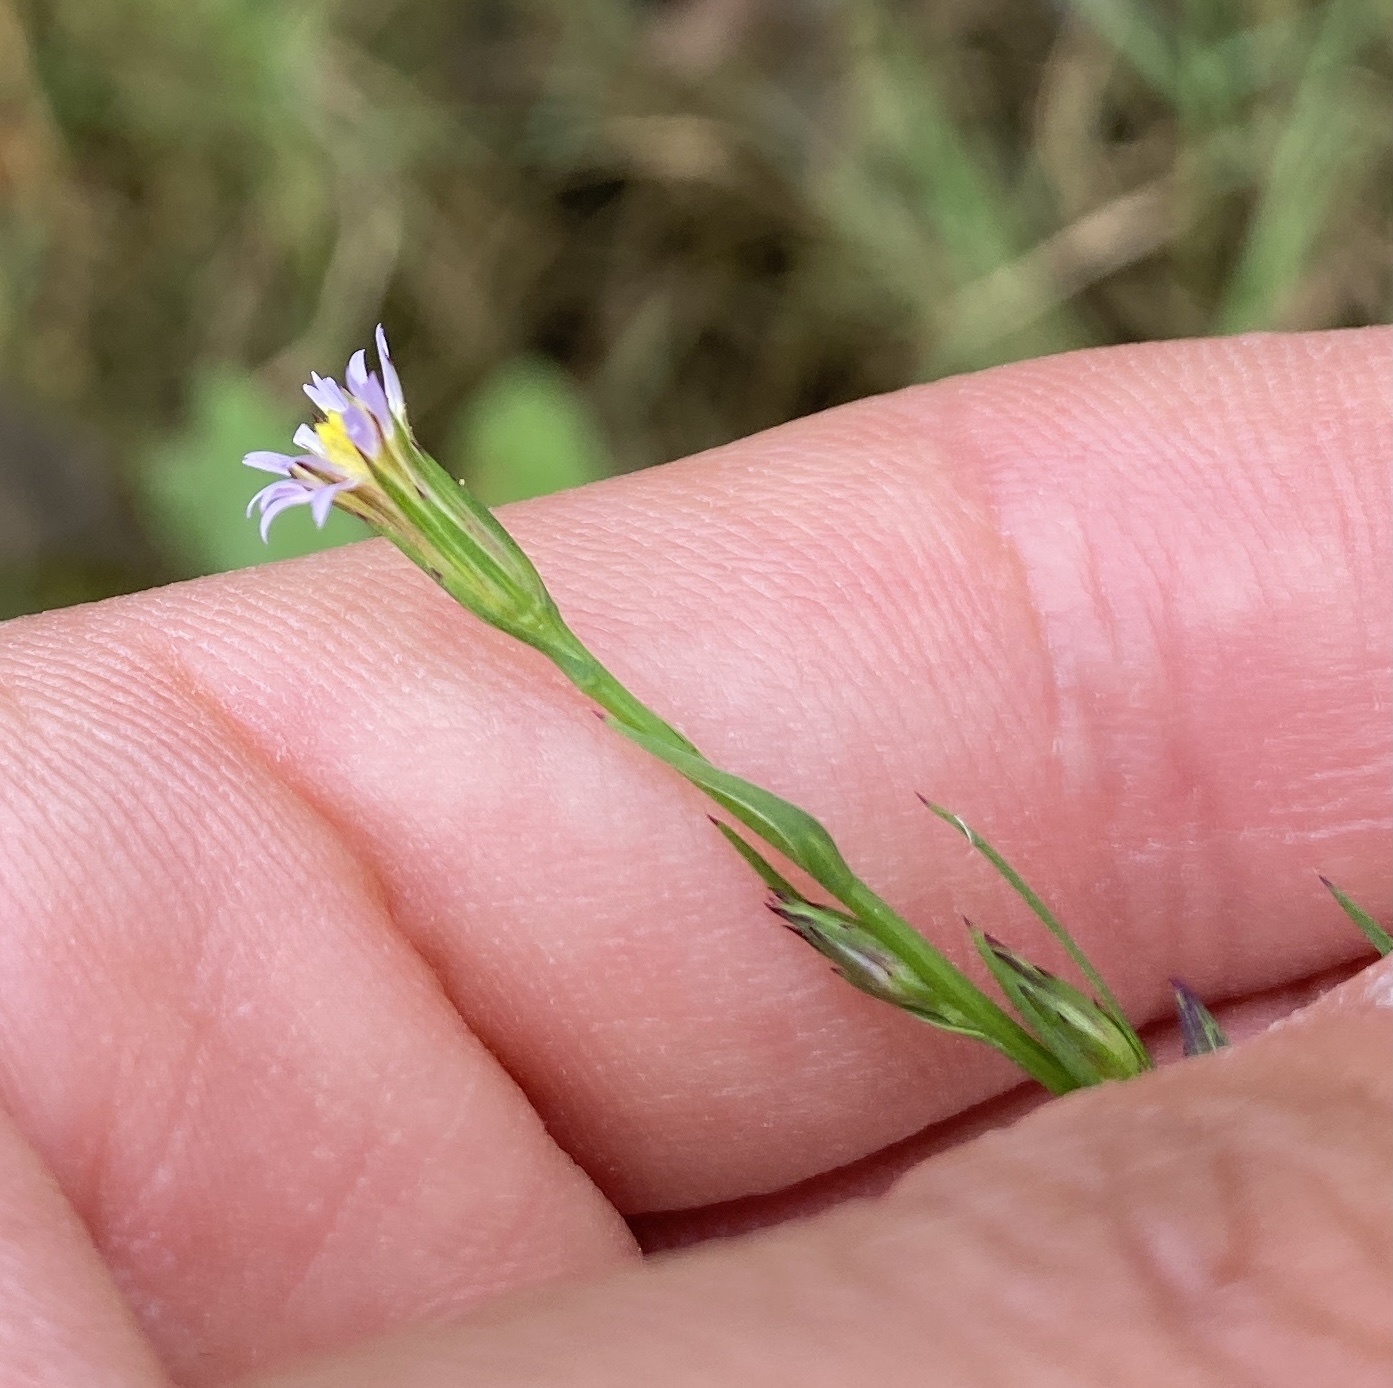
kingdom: Plantae
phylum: Tracheophyta
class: Magnoliopsida
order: Asterales
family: Asteraceae
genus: Symphyotrichum
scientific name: Symphyotrichum subulatum
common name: Annual saltmarsh aster
